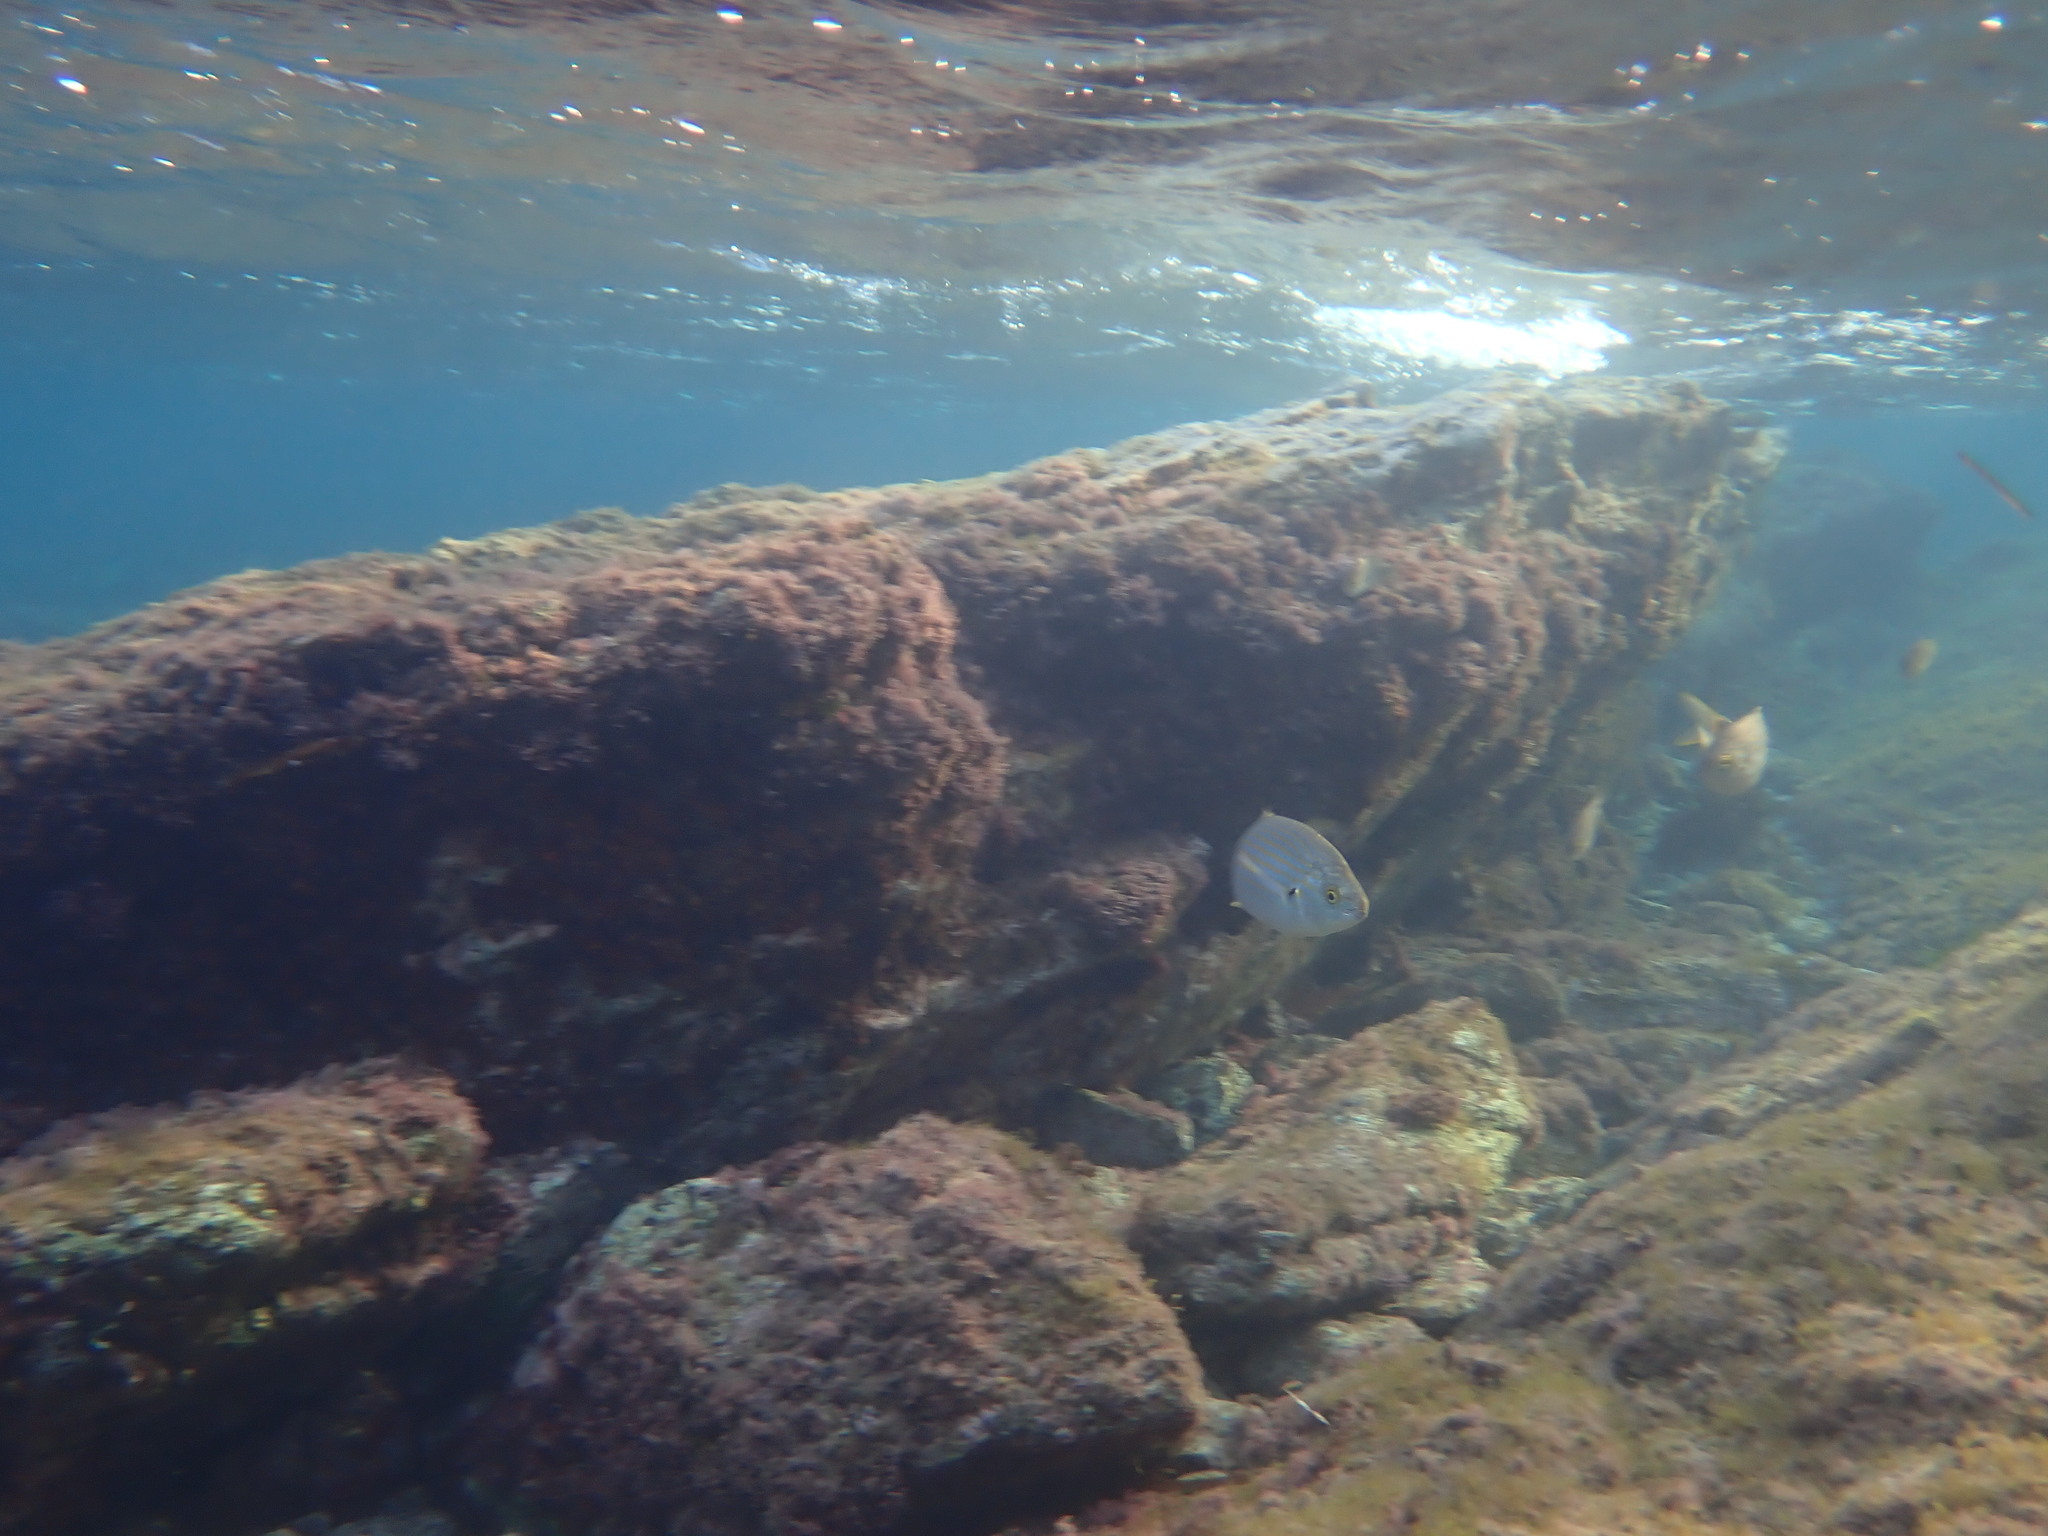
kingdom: Animalia
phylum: Chordata
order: Perciformes
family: Sparidae
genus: Sarpa
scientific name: Sarpa salpa
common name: Salema
